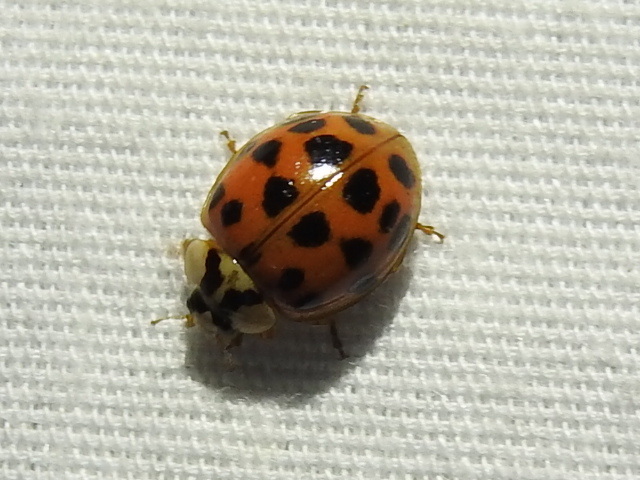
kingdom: Animalia
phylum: Arthropoda
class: Insecta
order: Coleoptera
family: Coccinellidae
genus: Harmonia
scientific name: Harmonia axyridis
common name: Harlequin ladybird
